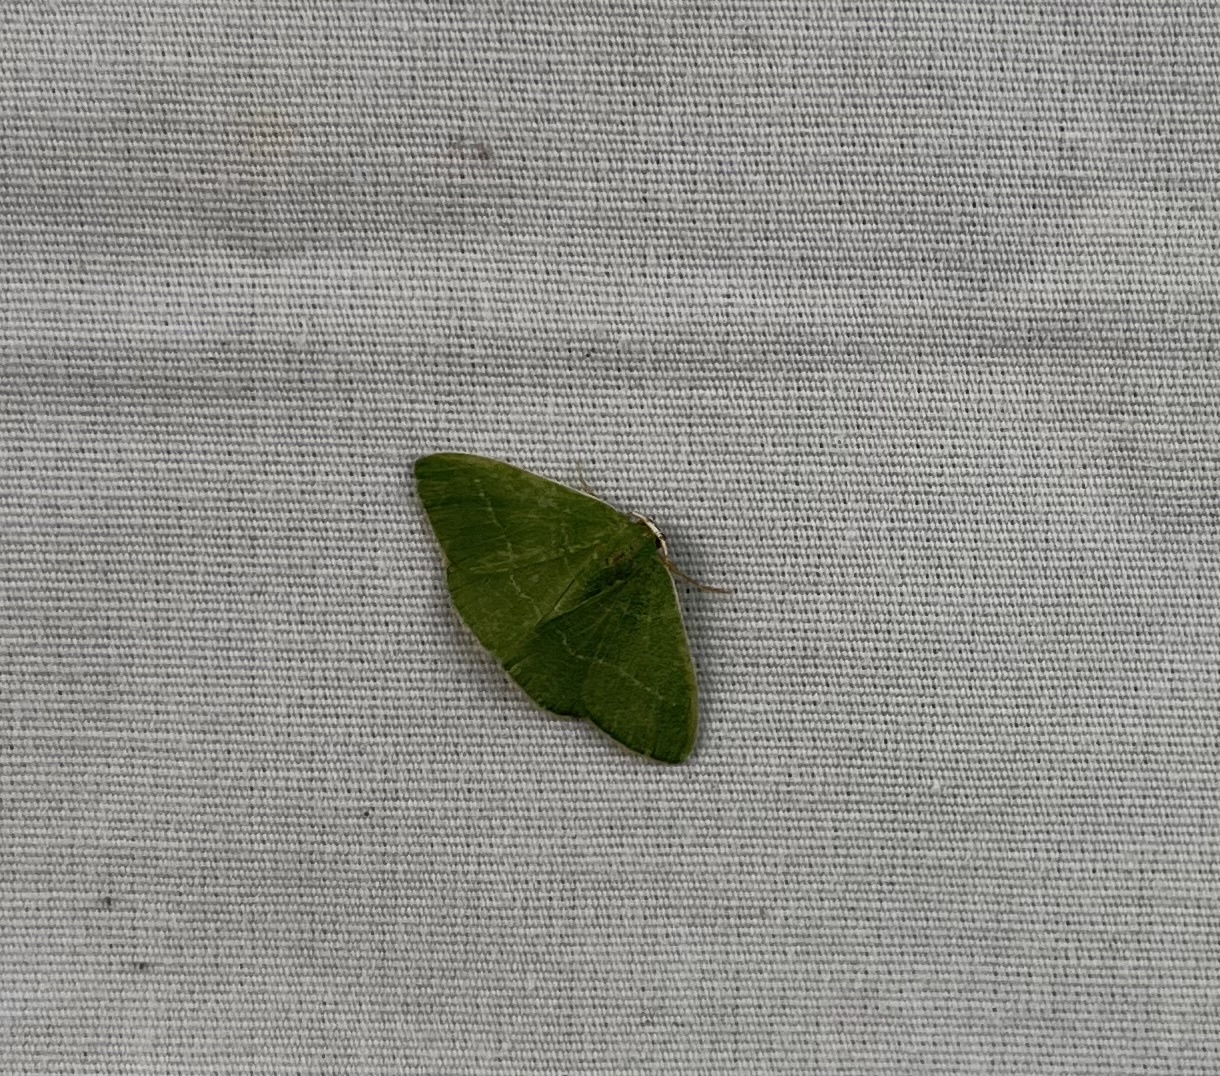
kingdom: Animalia
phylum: Arthropoda
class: Insecta
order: Lepidoptera
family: Geometridae
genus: Nemoria
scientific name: Nemoria zygotaria
